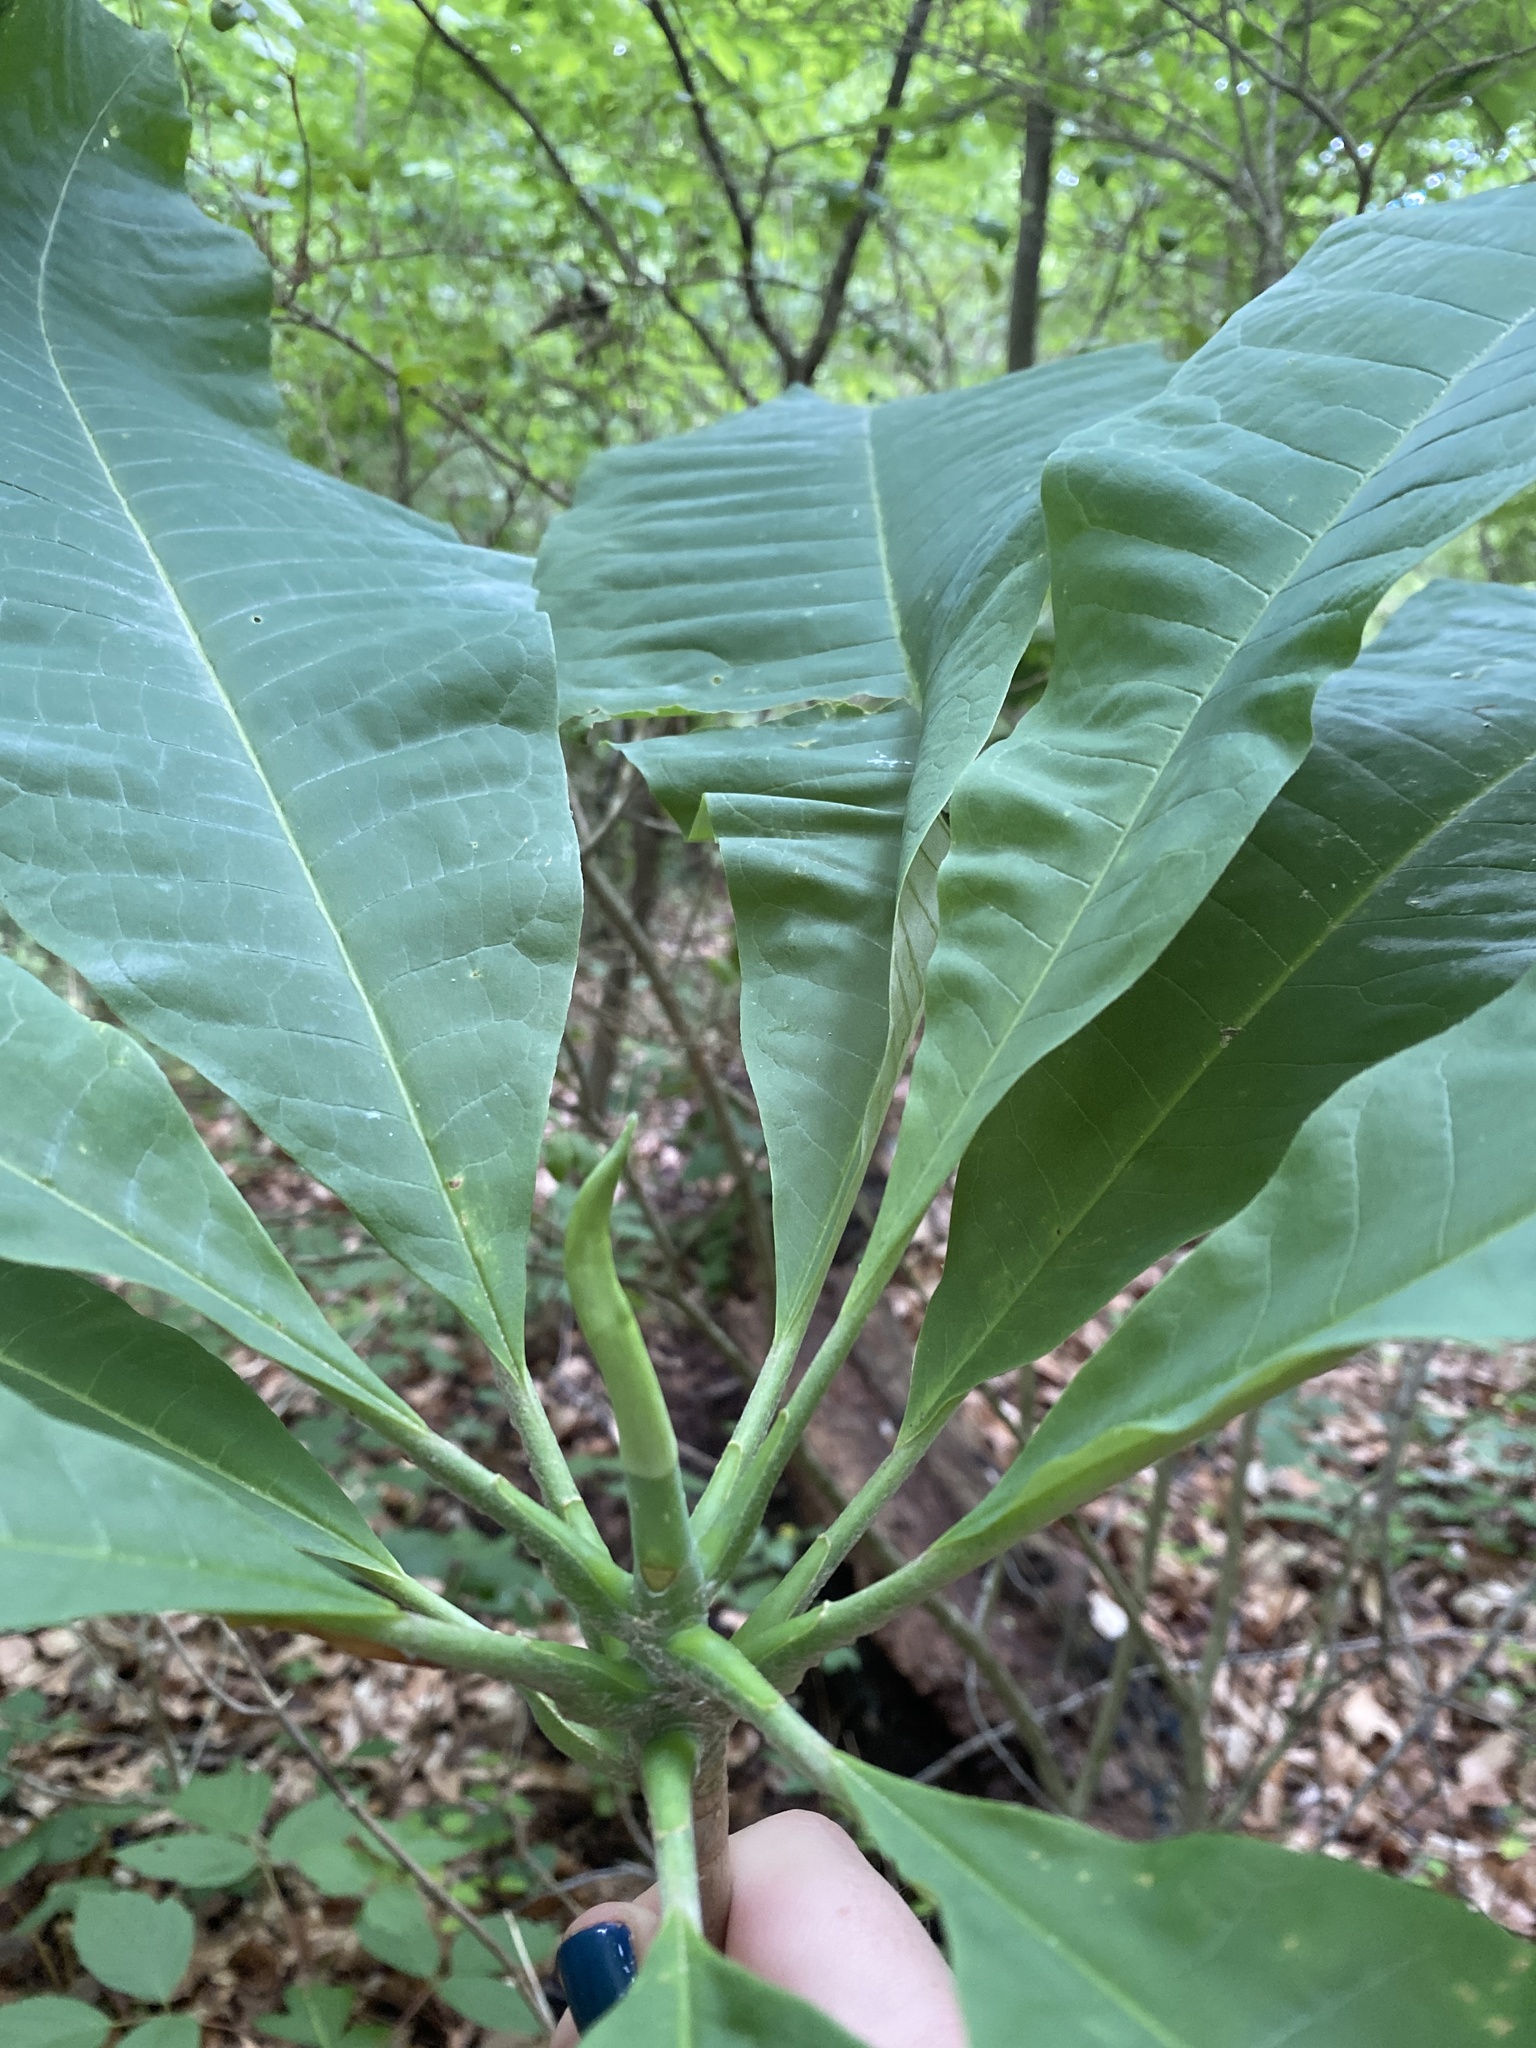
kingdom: Plantae
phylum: Tracheophyta
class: Magnoliopsida
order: Magnoliales
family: Magnoliaceae
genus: Magnolia
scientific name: Magnolia tripetala
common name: Umbrella magnolia
